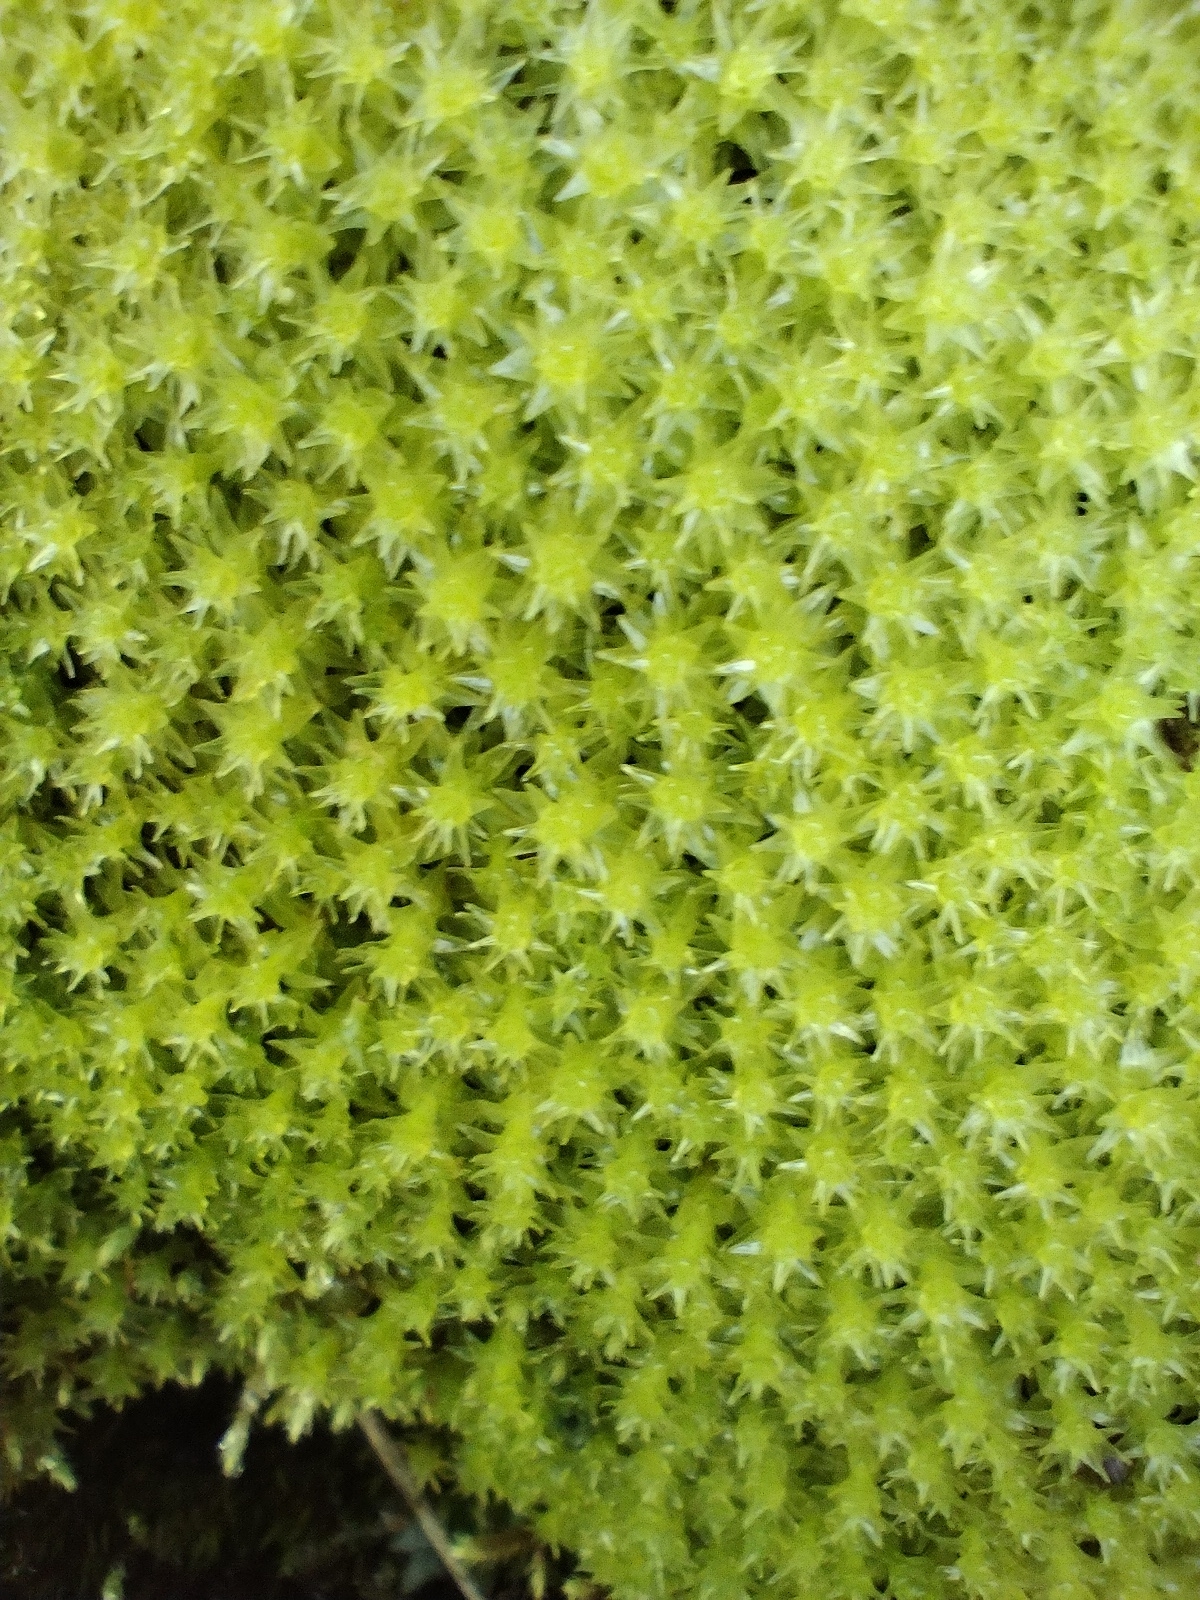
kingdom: Plantae
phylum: Bryophyta
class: Bryopsida
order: Dicranales
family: Aongstroemiaceae
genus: Diobelonella
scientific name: Diobelonella palustris
